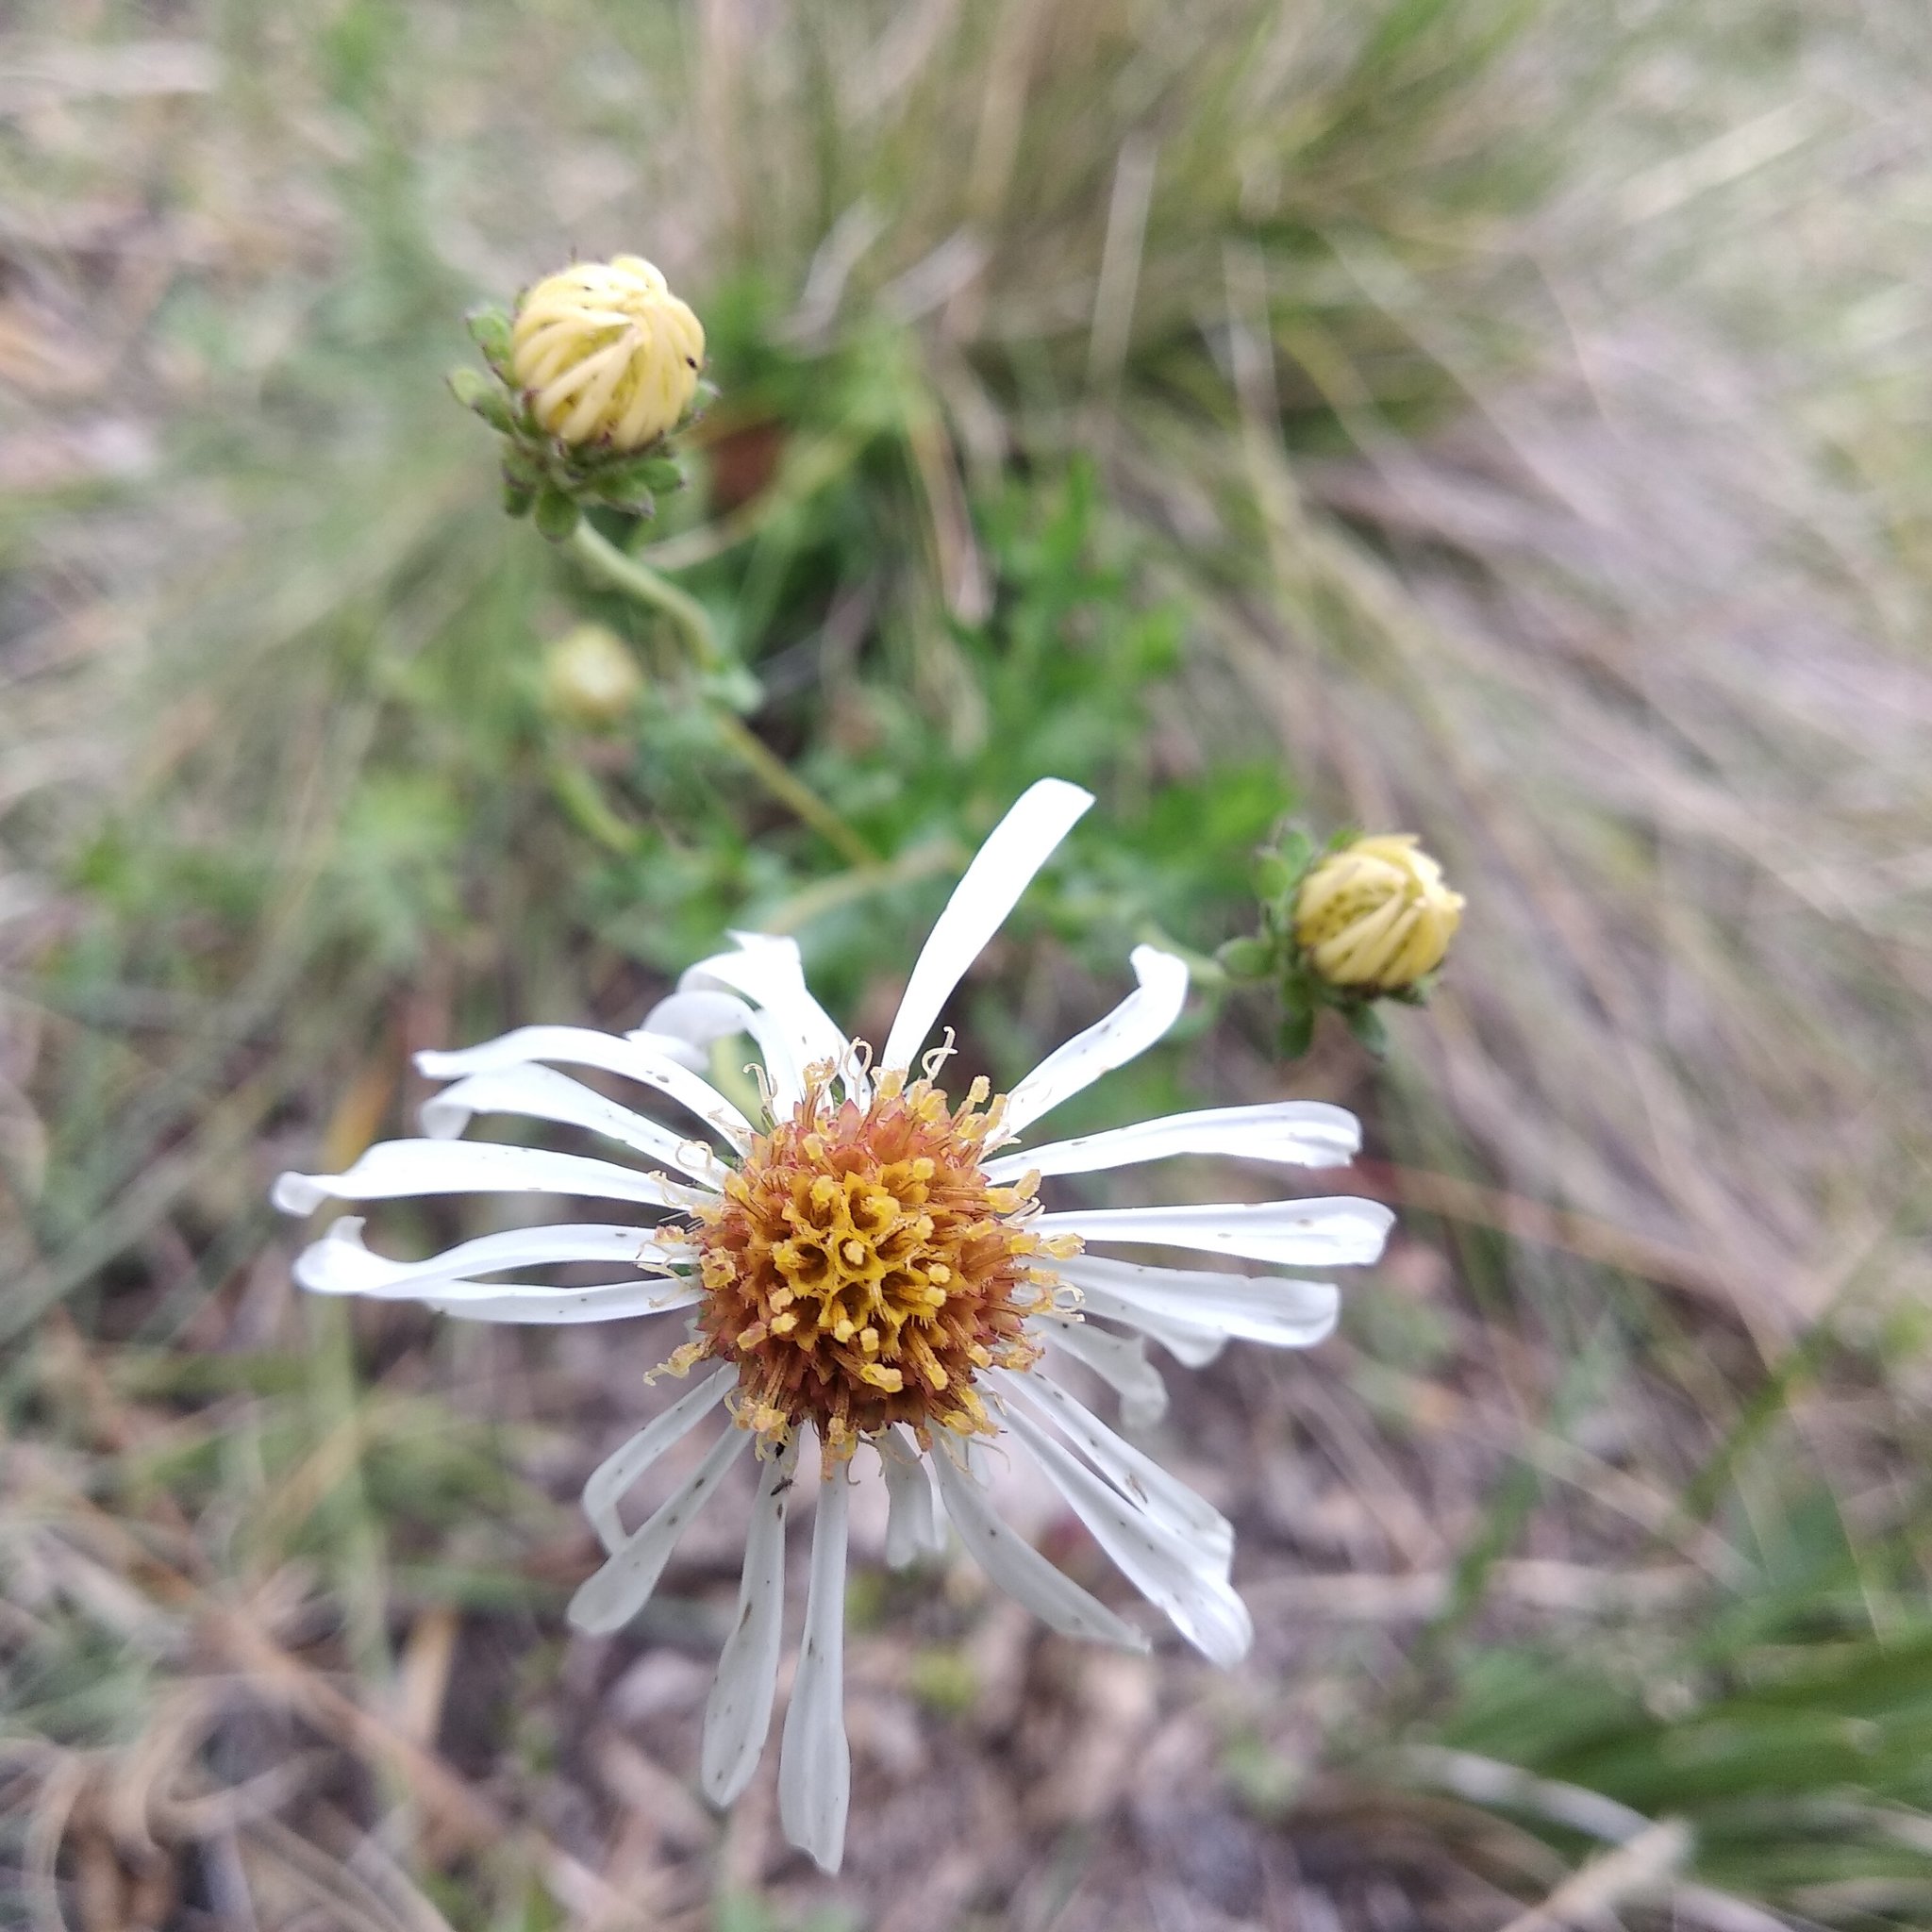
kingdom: Plantae
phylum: Tracheophyta
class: Magnoliopsida
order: Asterales
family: Asteraceae
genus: Symphyotrichum
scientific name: Symphyotrichum trilineatum
